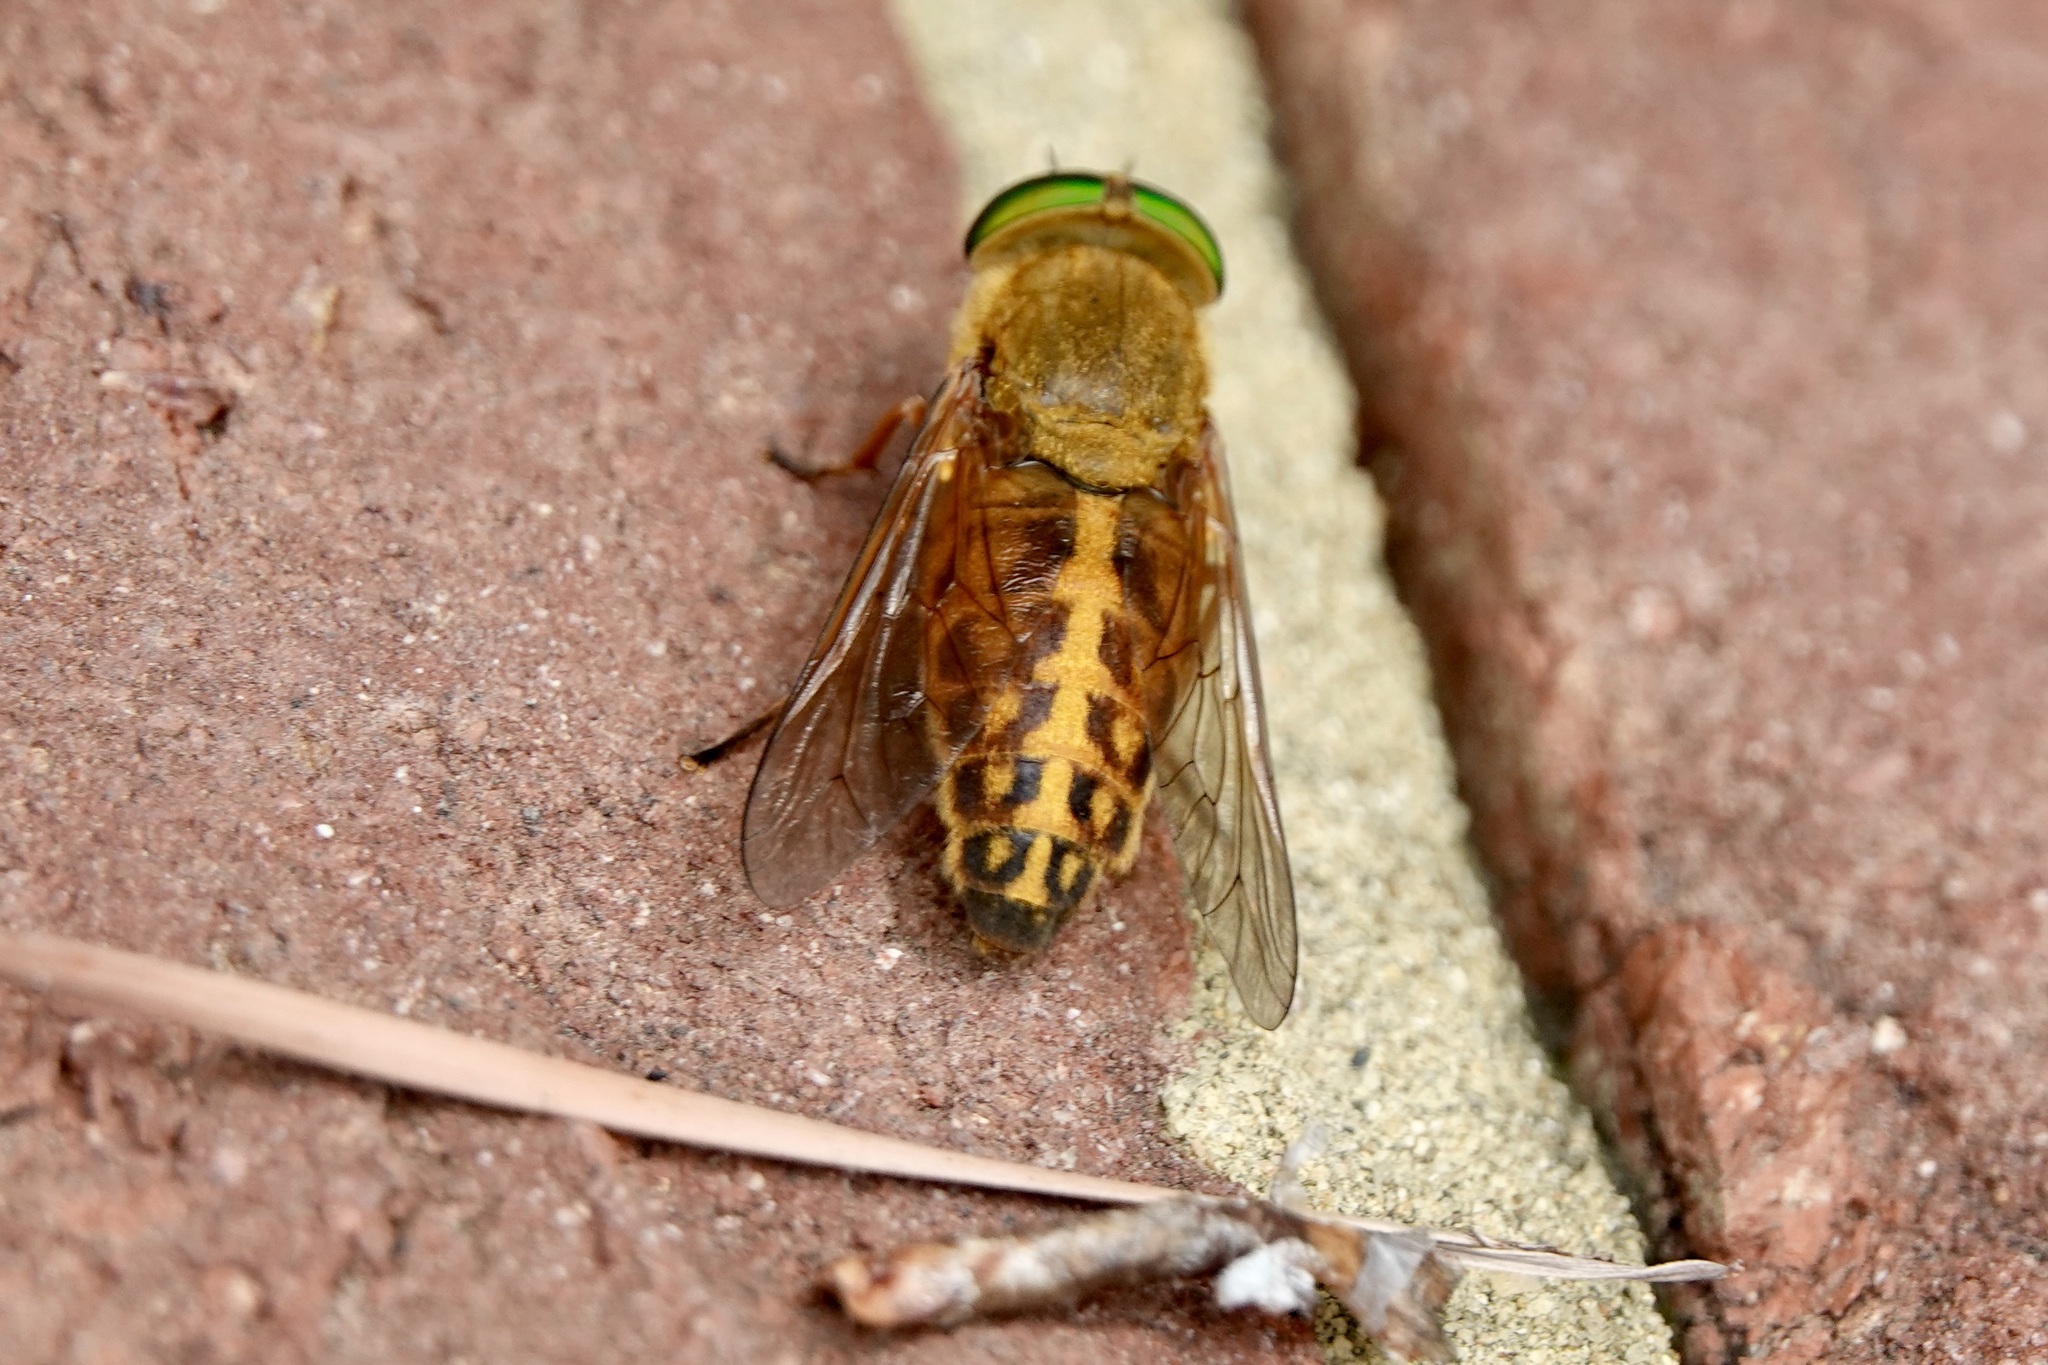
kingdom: Animalia
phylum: Arthropoda
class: Insecta
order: Diptera
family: Tabanidae
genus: Tabanus
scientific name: Tabanus fulvulus
